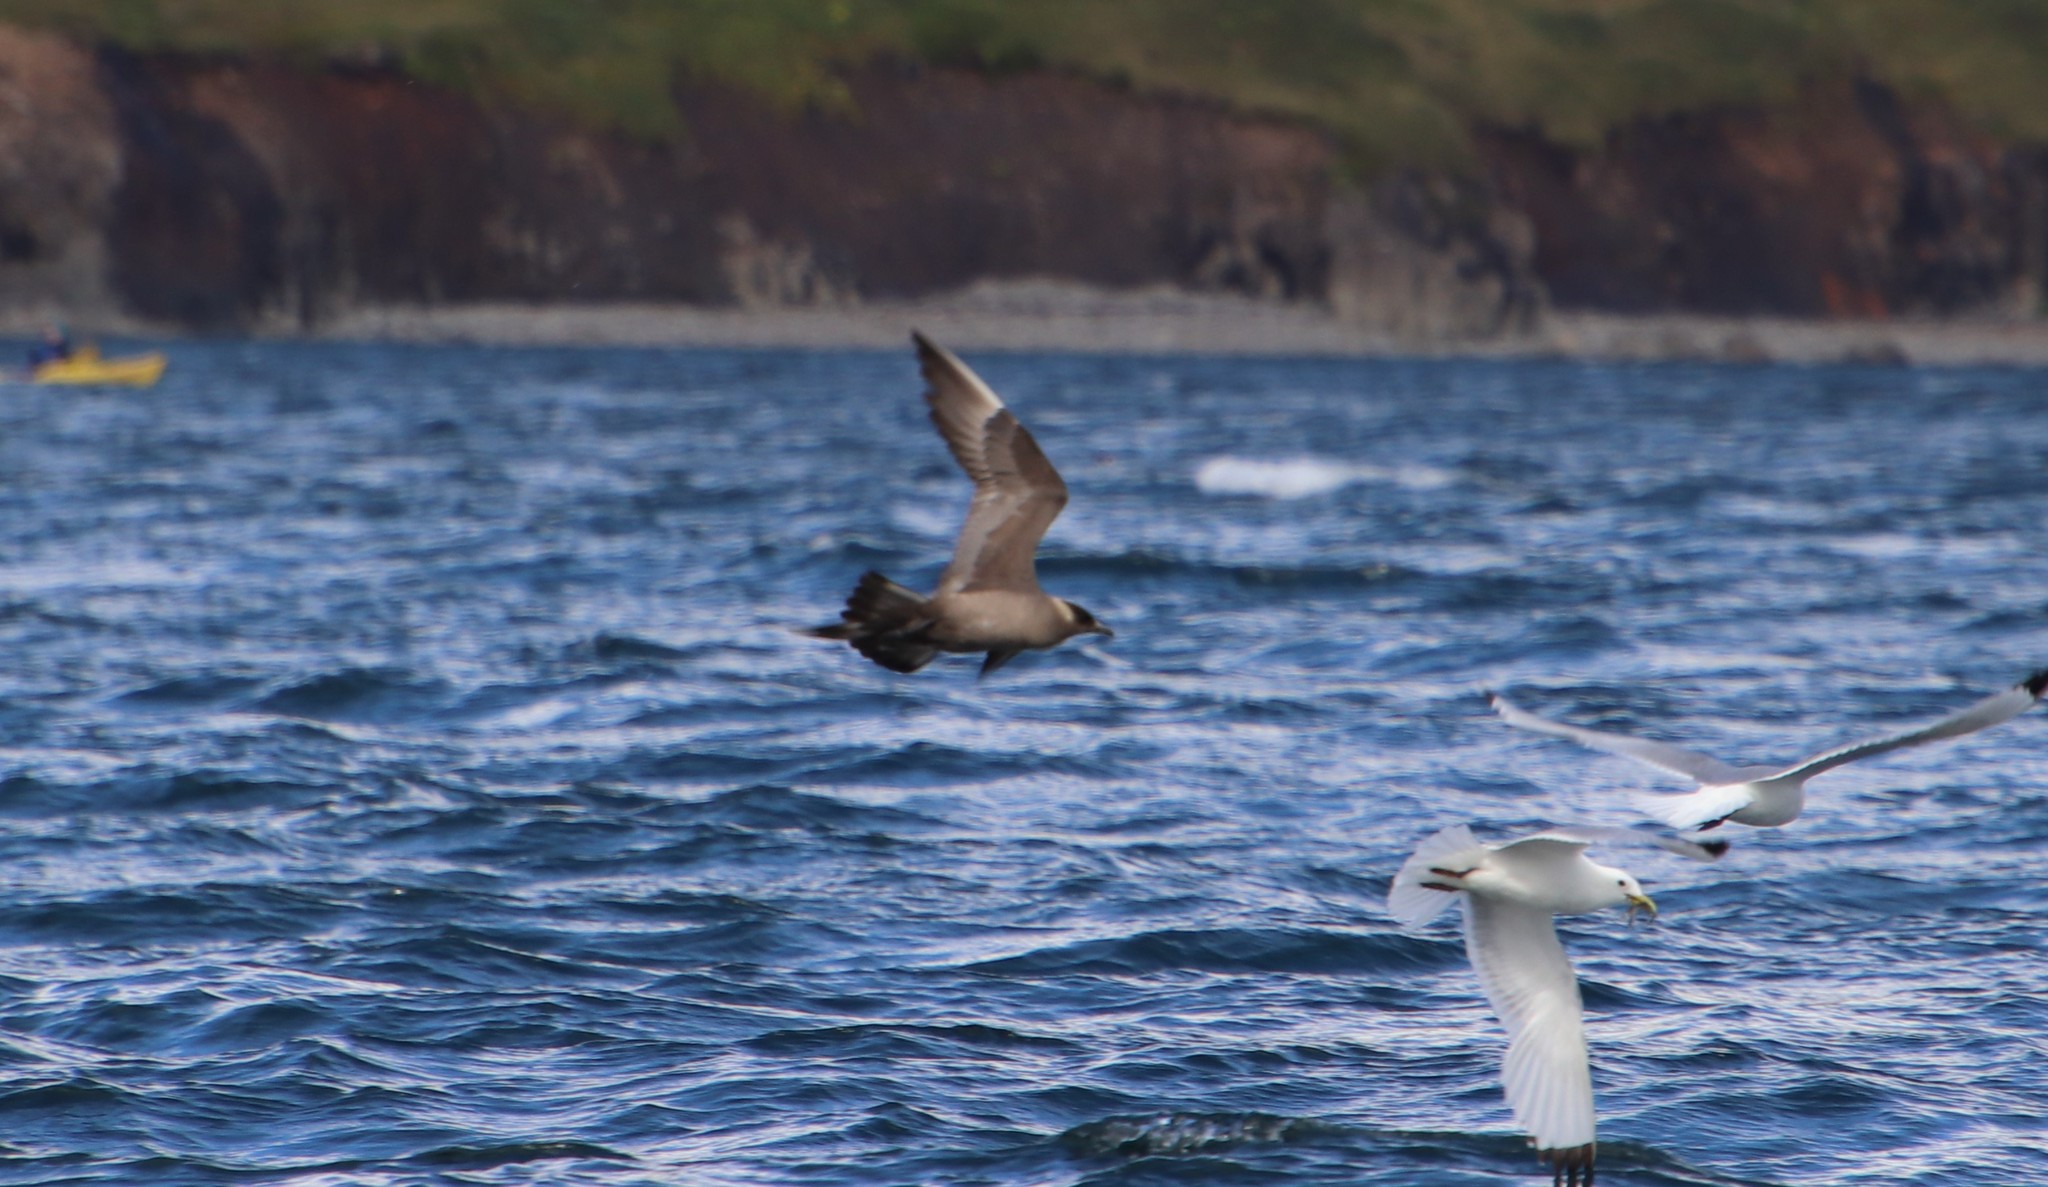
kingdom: Animalia
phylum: Chordata
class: Aves
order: Charadriiformes
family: Stercorariidae
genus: Stercorarius
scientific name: Stercorarius parasiticus
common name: Parasitic jaeger
